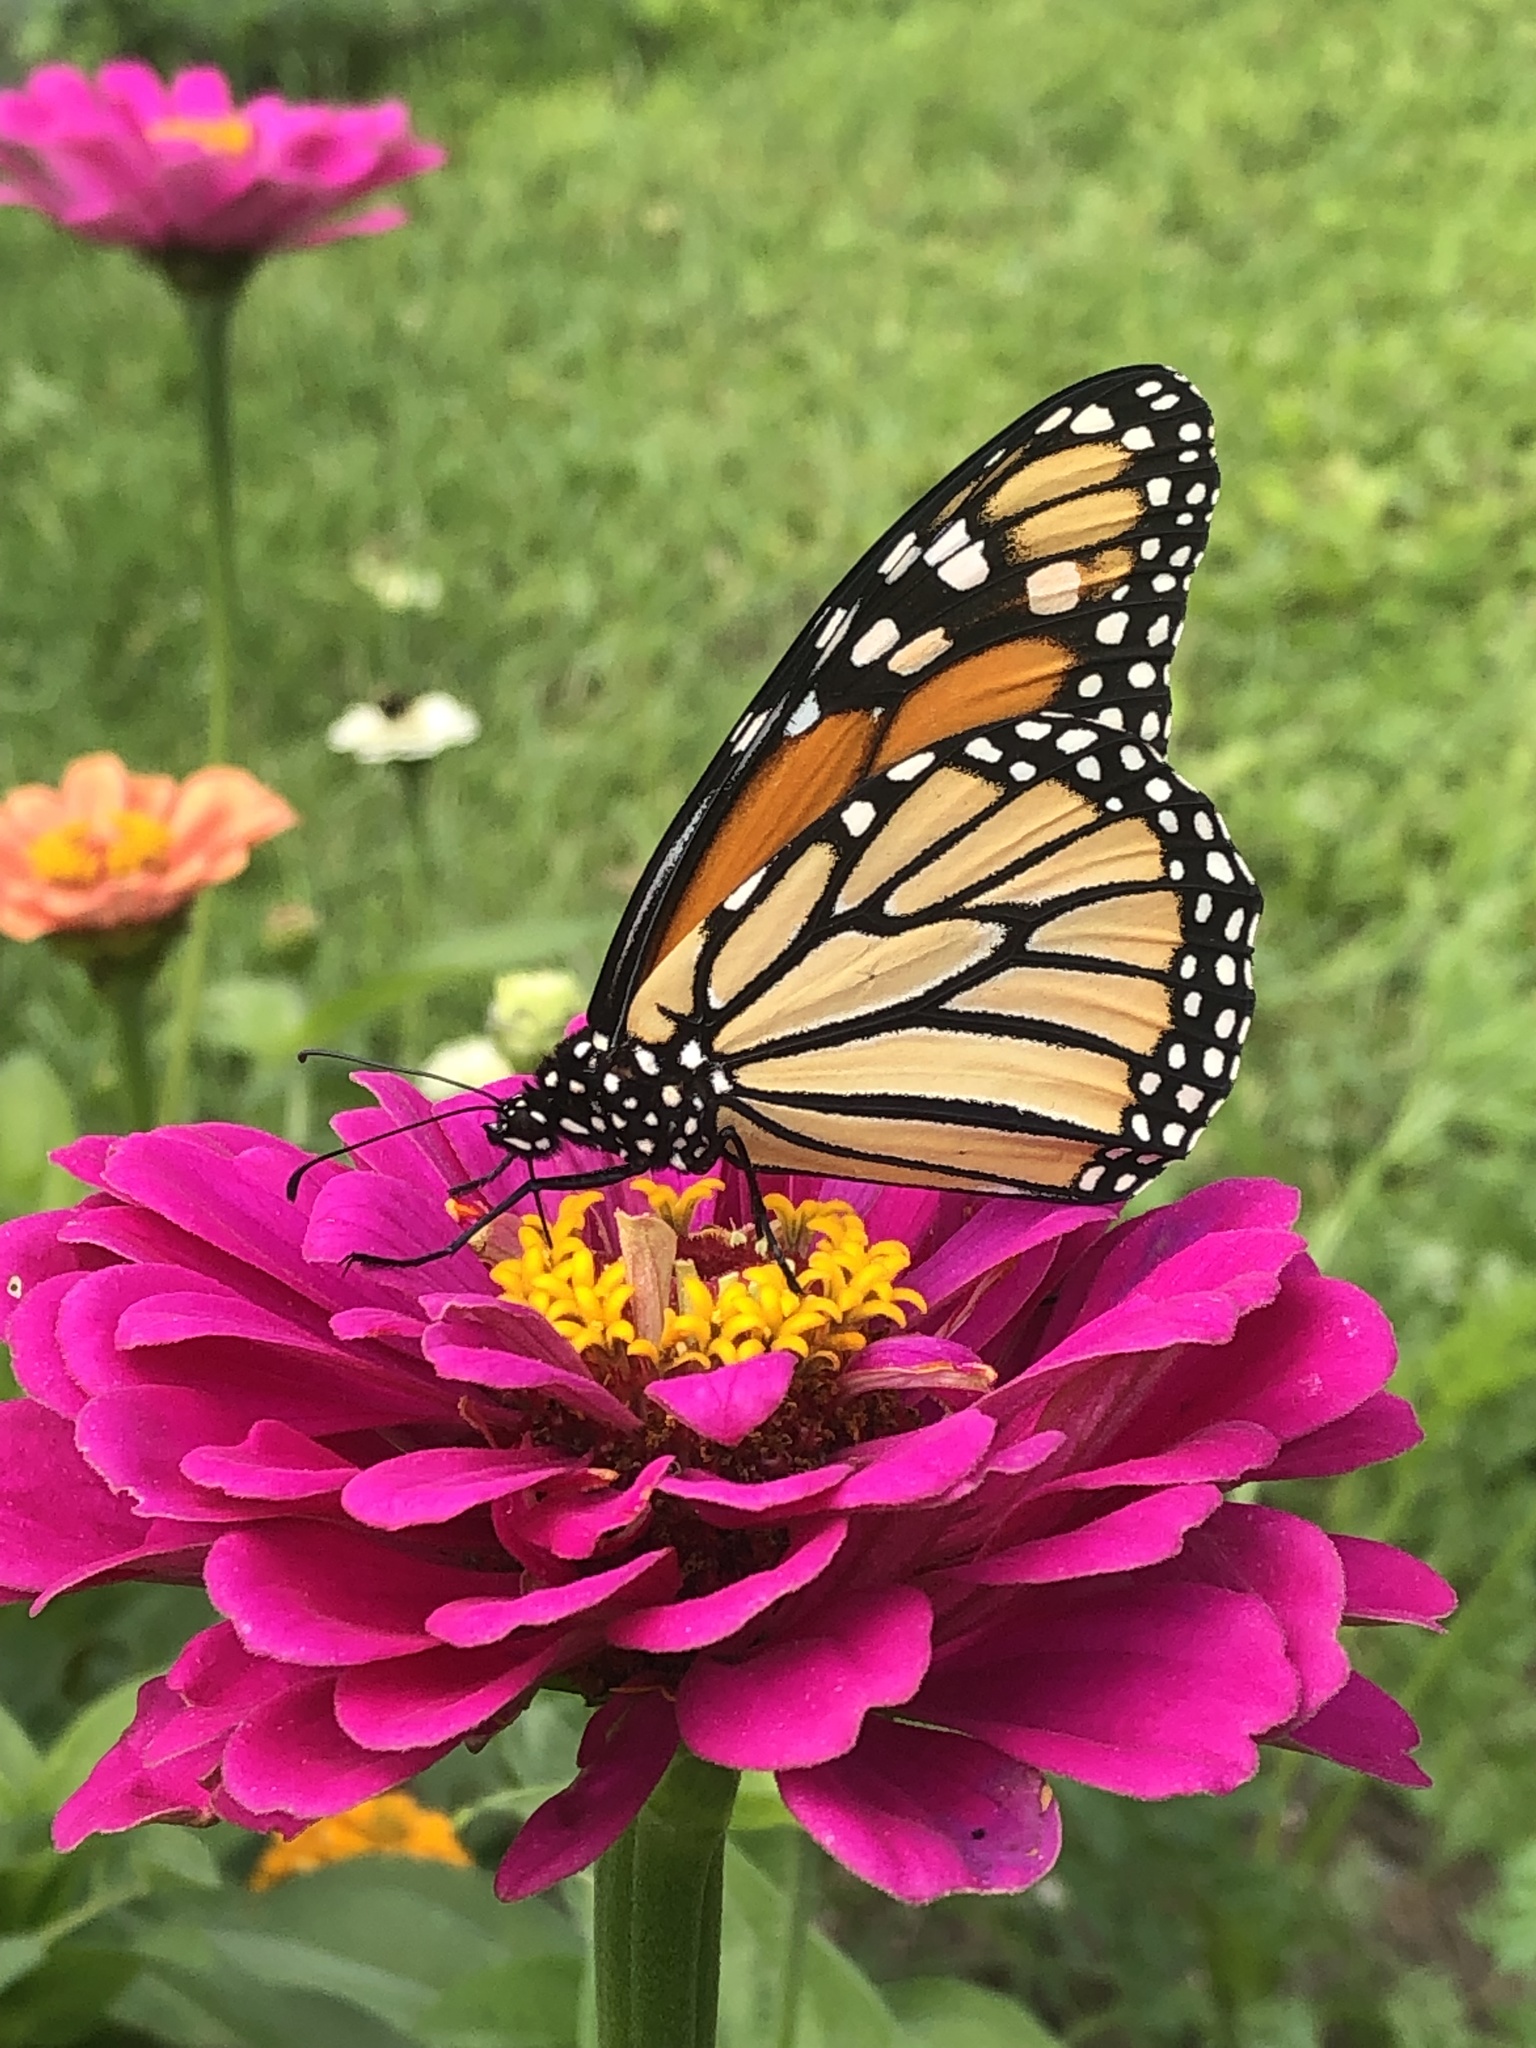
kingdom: Animalia
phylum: Arthropoda
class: Insecta
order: Lepidoptera
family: Nymphalidae
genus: Danaus
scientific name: Danaus plexippus
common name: Monarch
